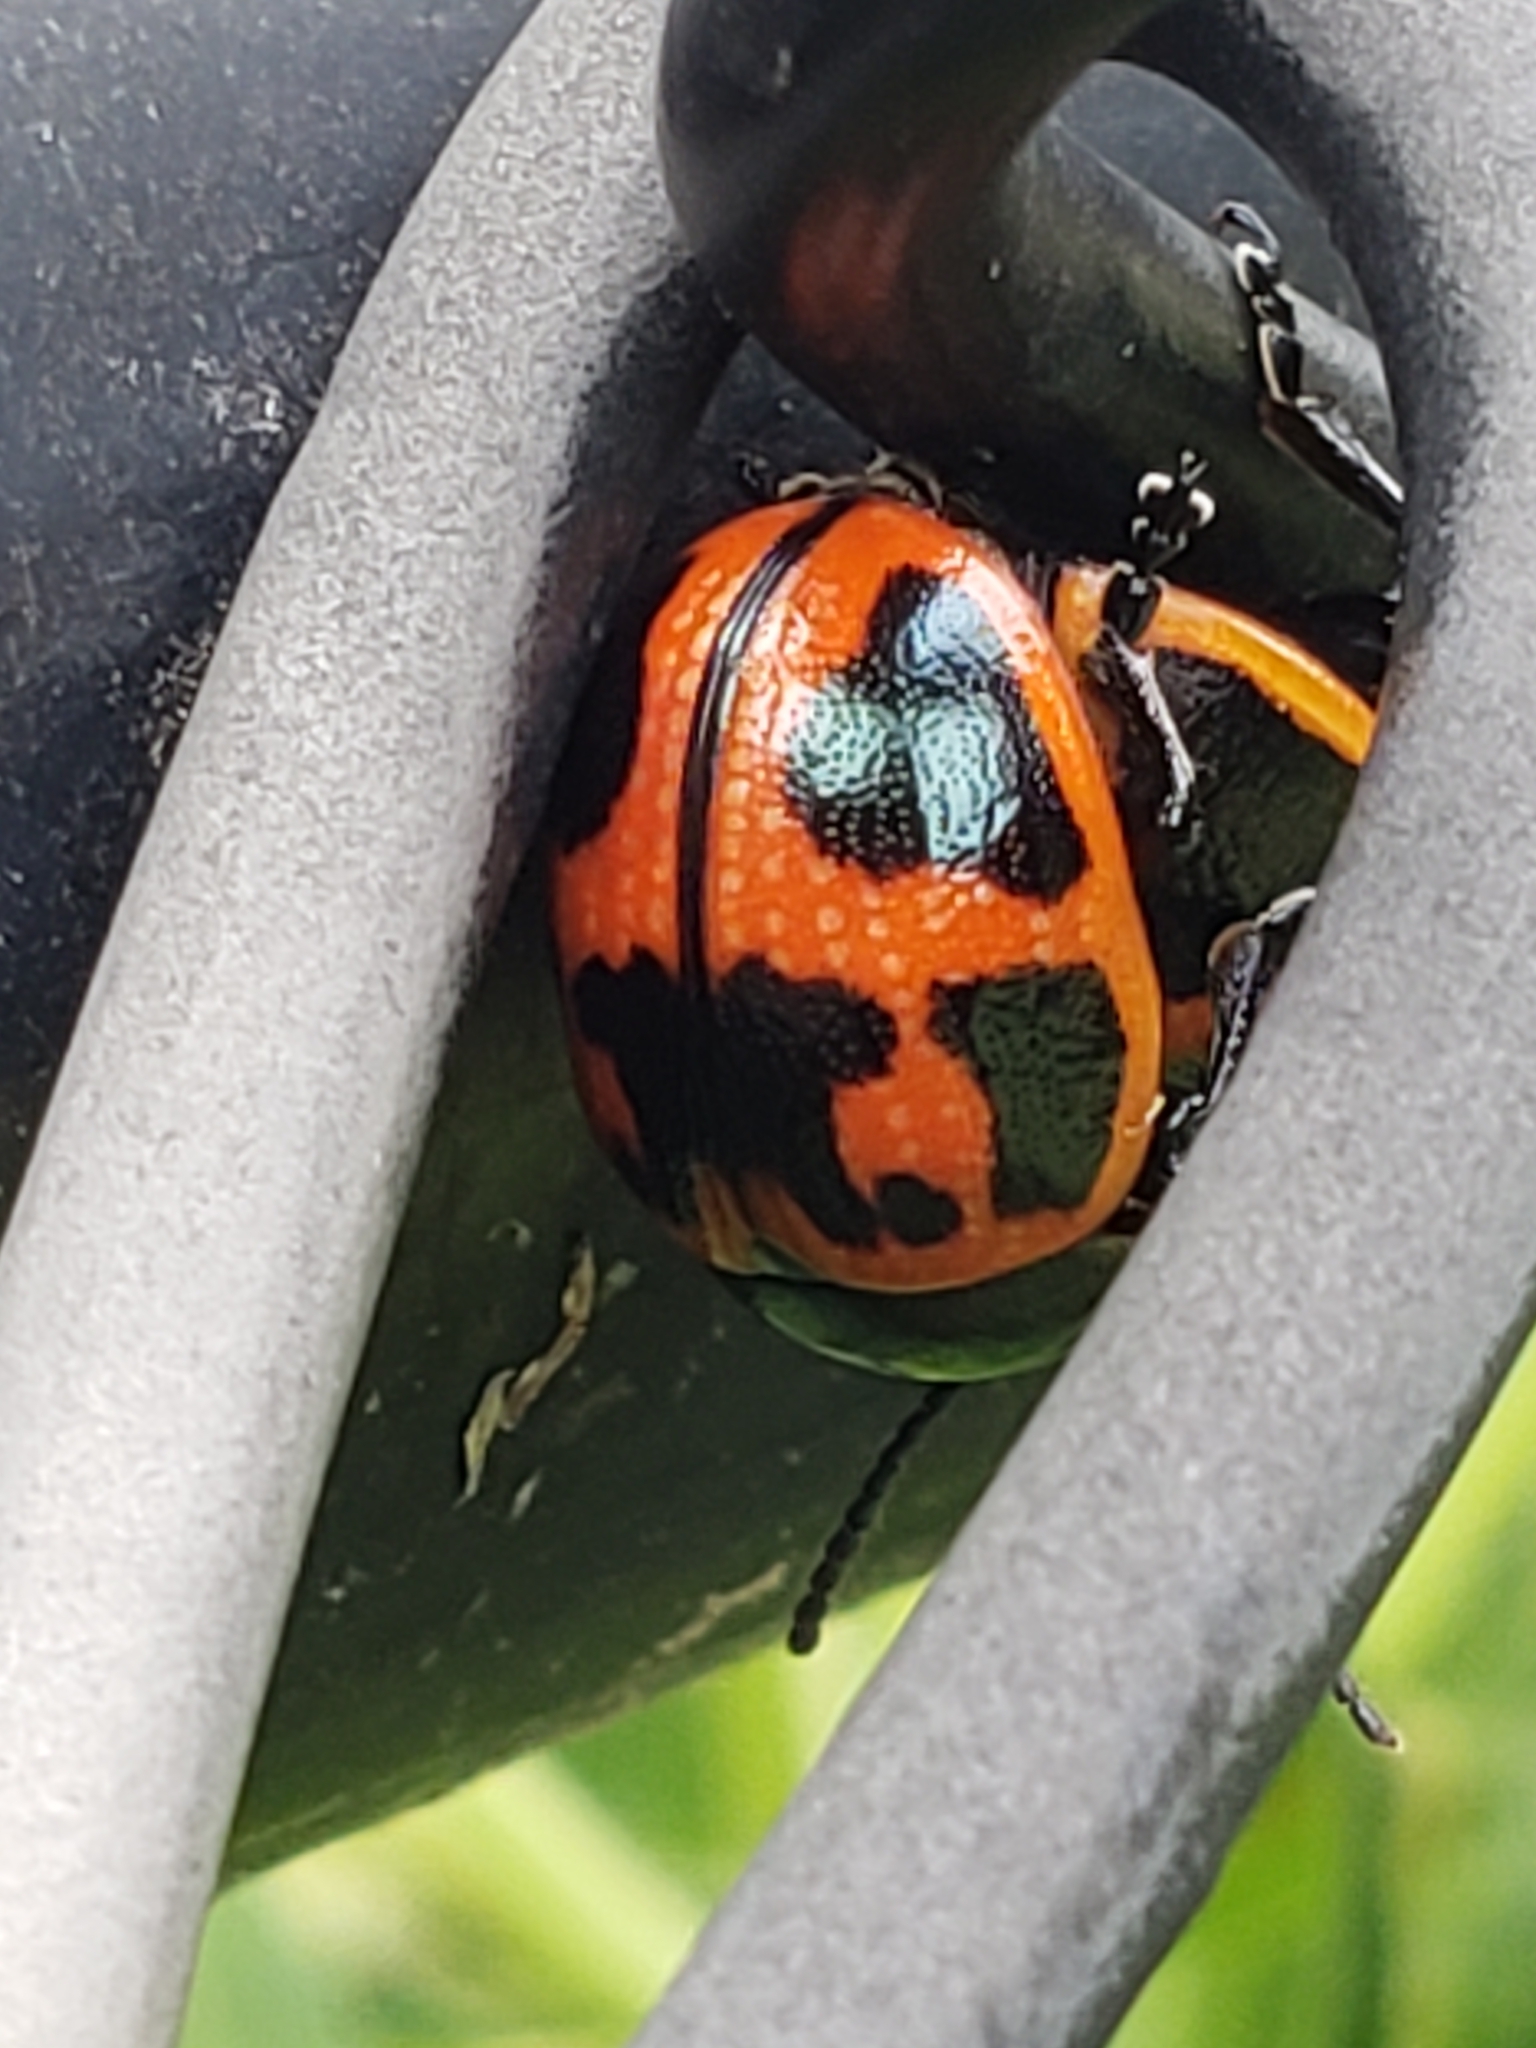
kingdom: Animalia
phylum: Arthropoda
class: Insecta
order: Coleoptera
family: Chrysomelidae
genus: Labidomera
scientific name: Labidomera clivicollis
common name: Swamp milkweed leaf beetle
